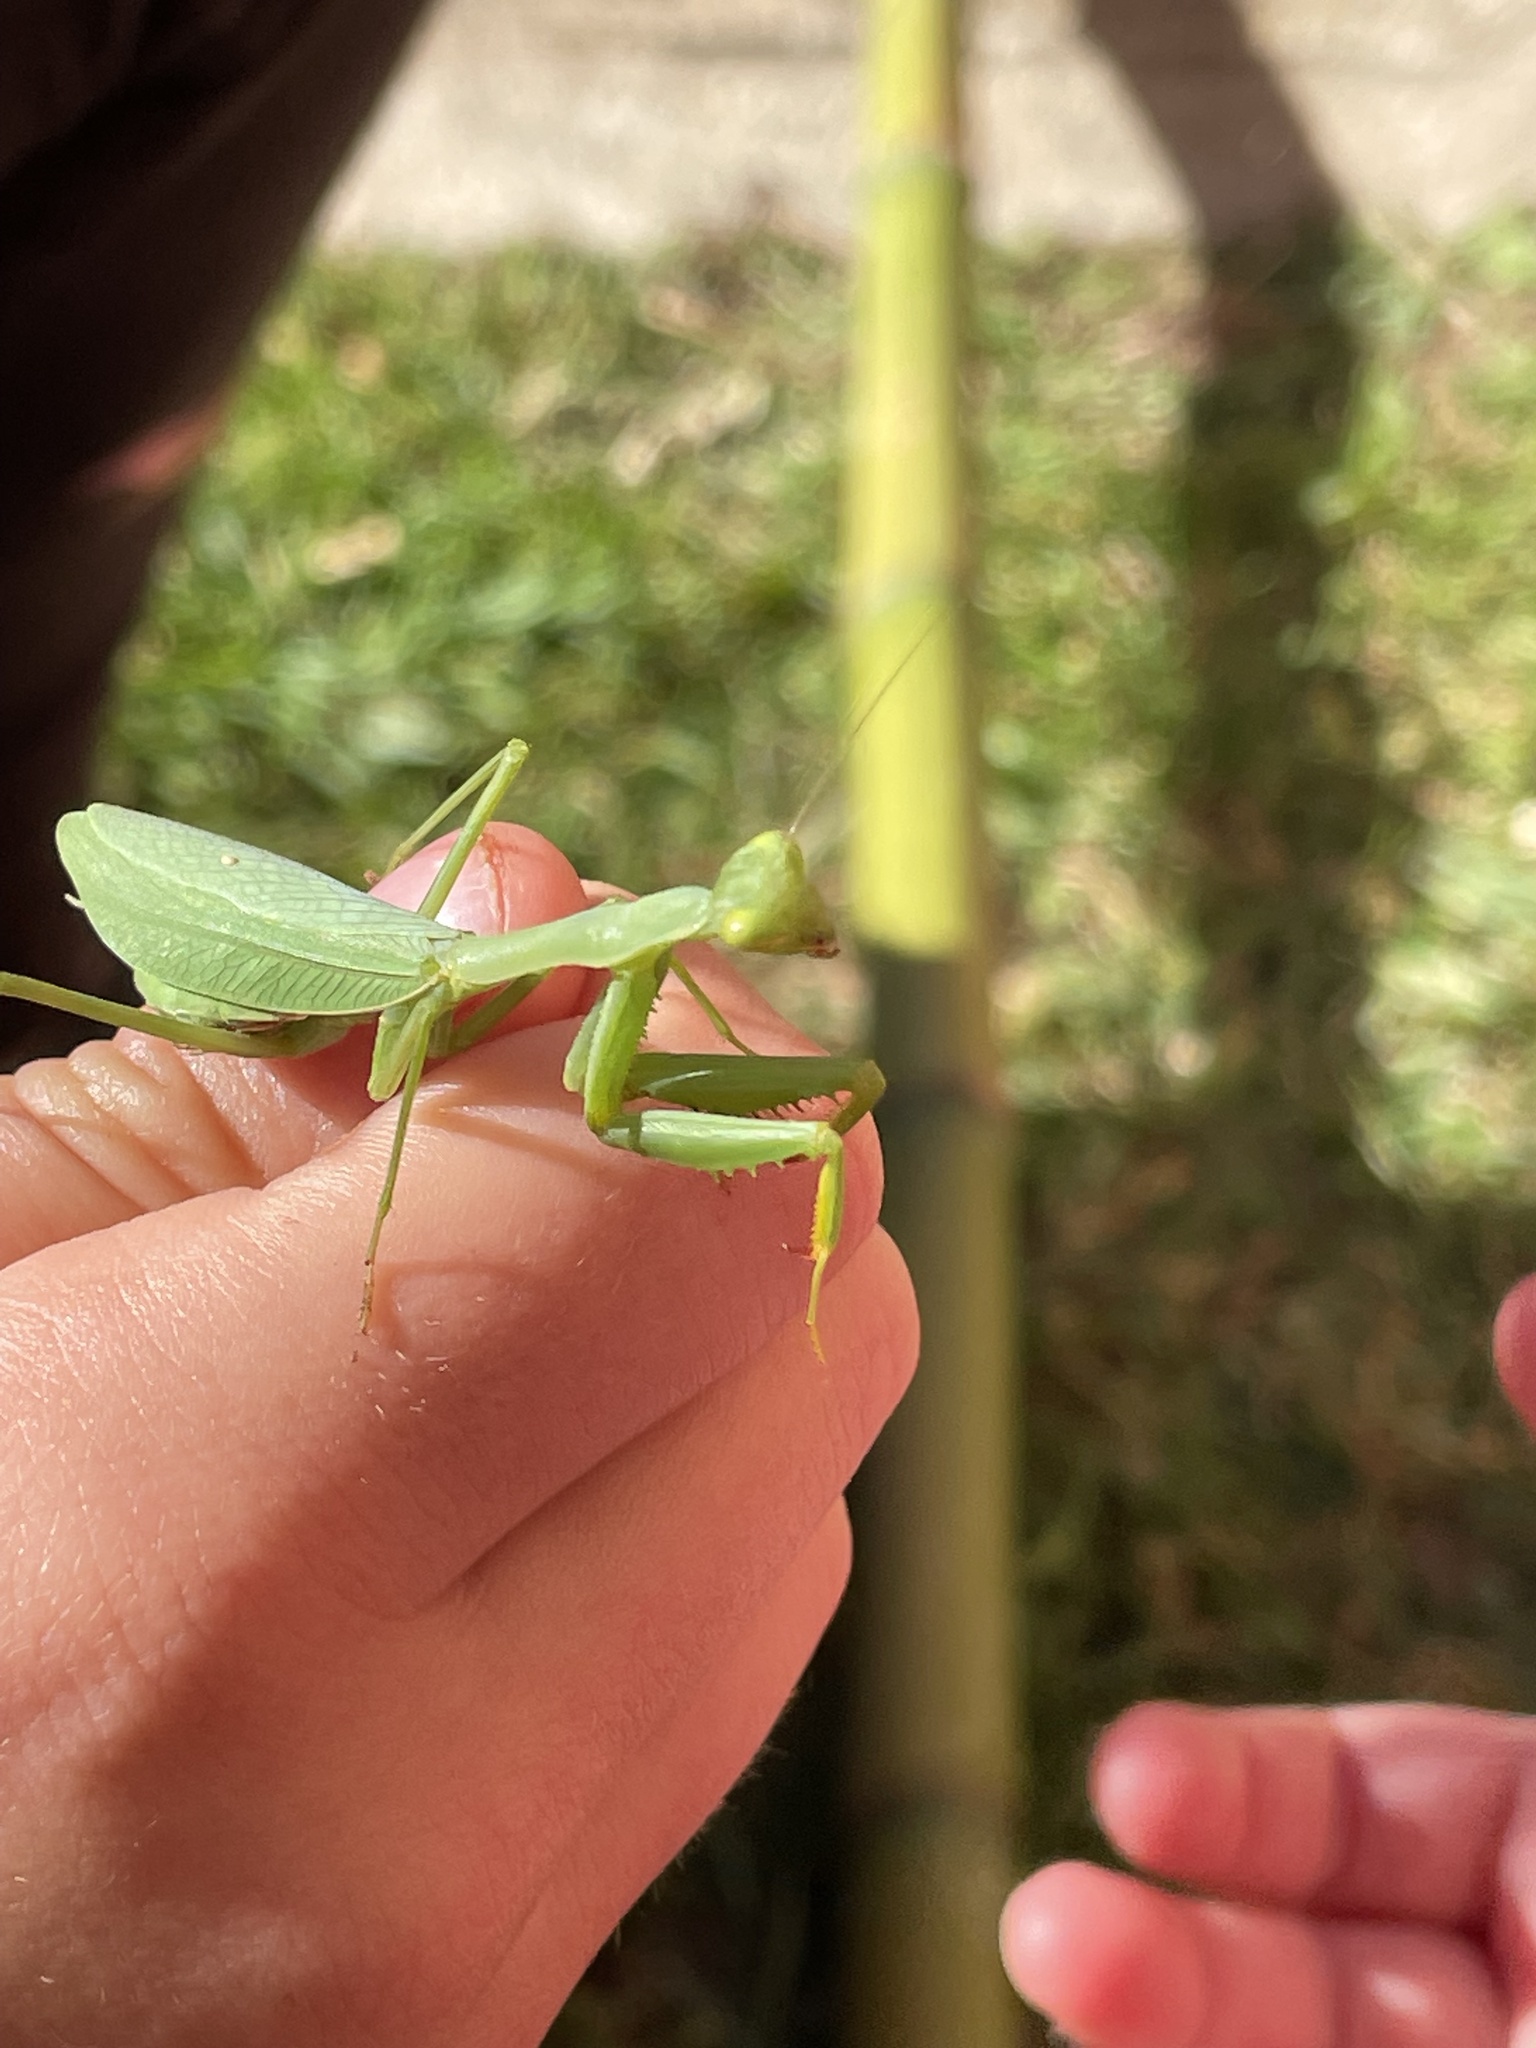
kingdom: Animalia
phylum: Arthropoda
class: Insecta
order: Mantodea
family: Miomantidae
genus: Miomantis
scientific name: Miomantis caffra
